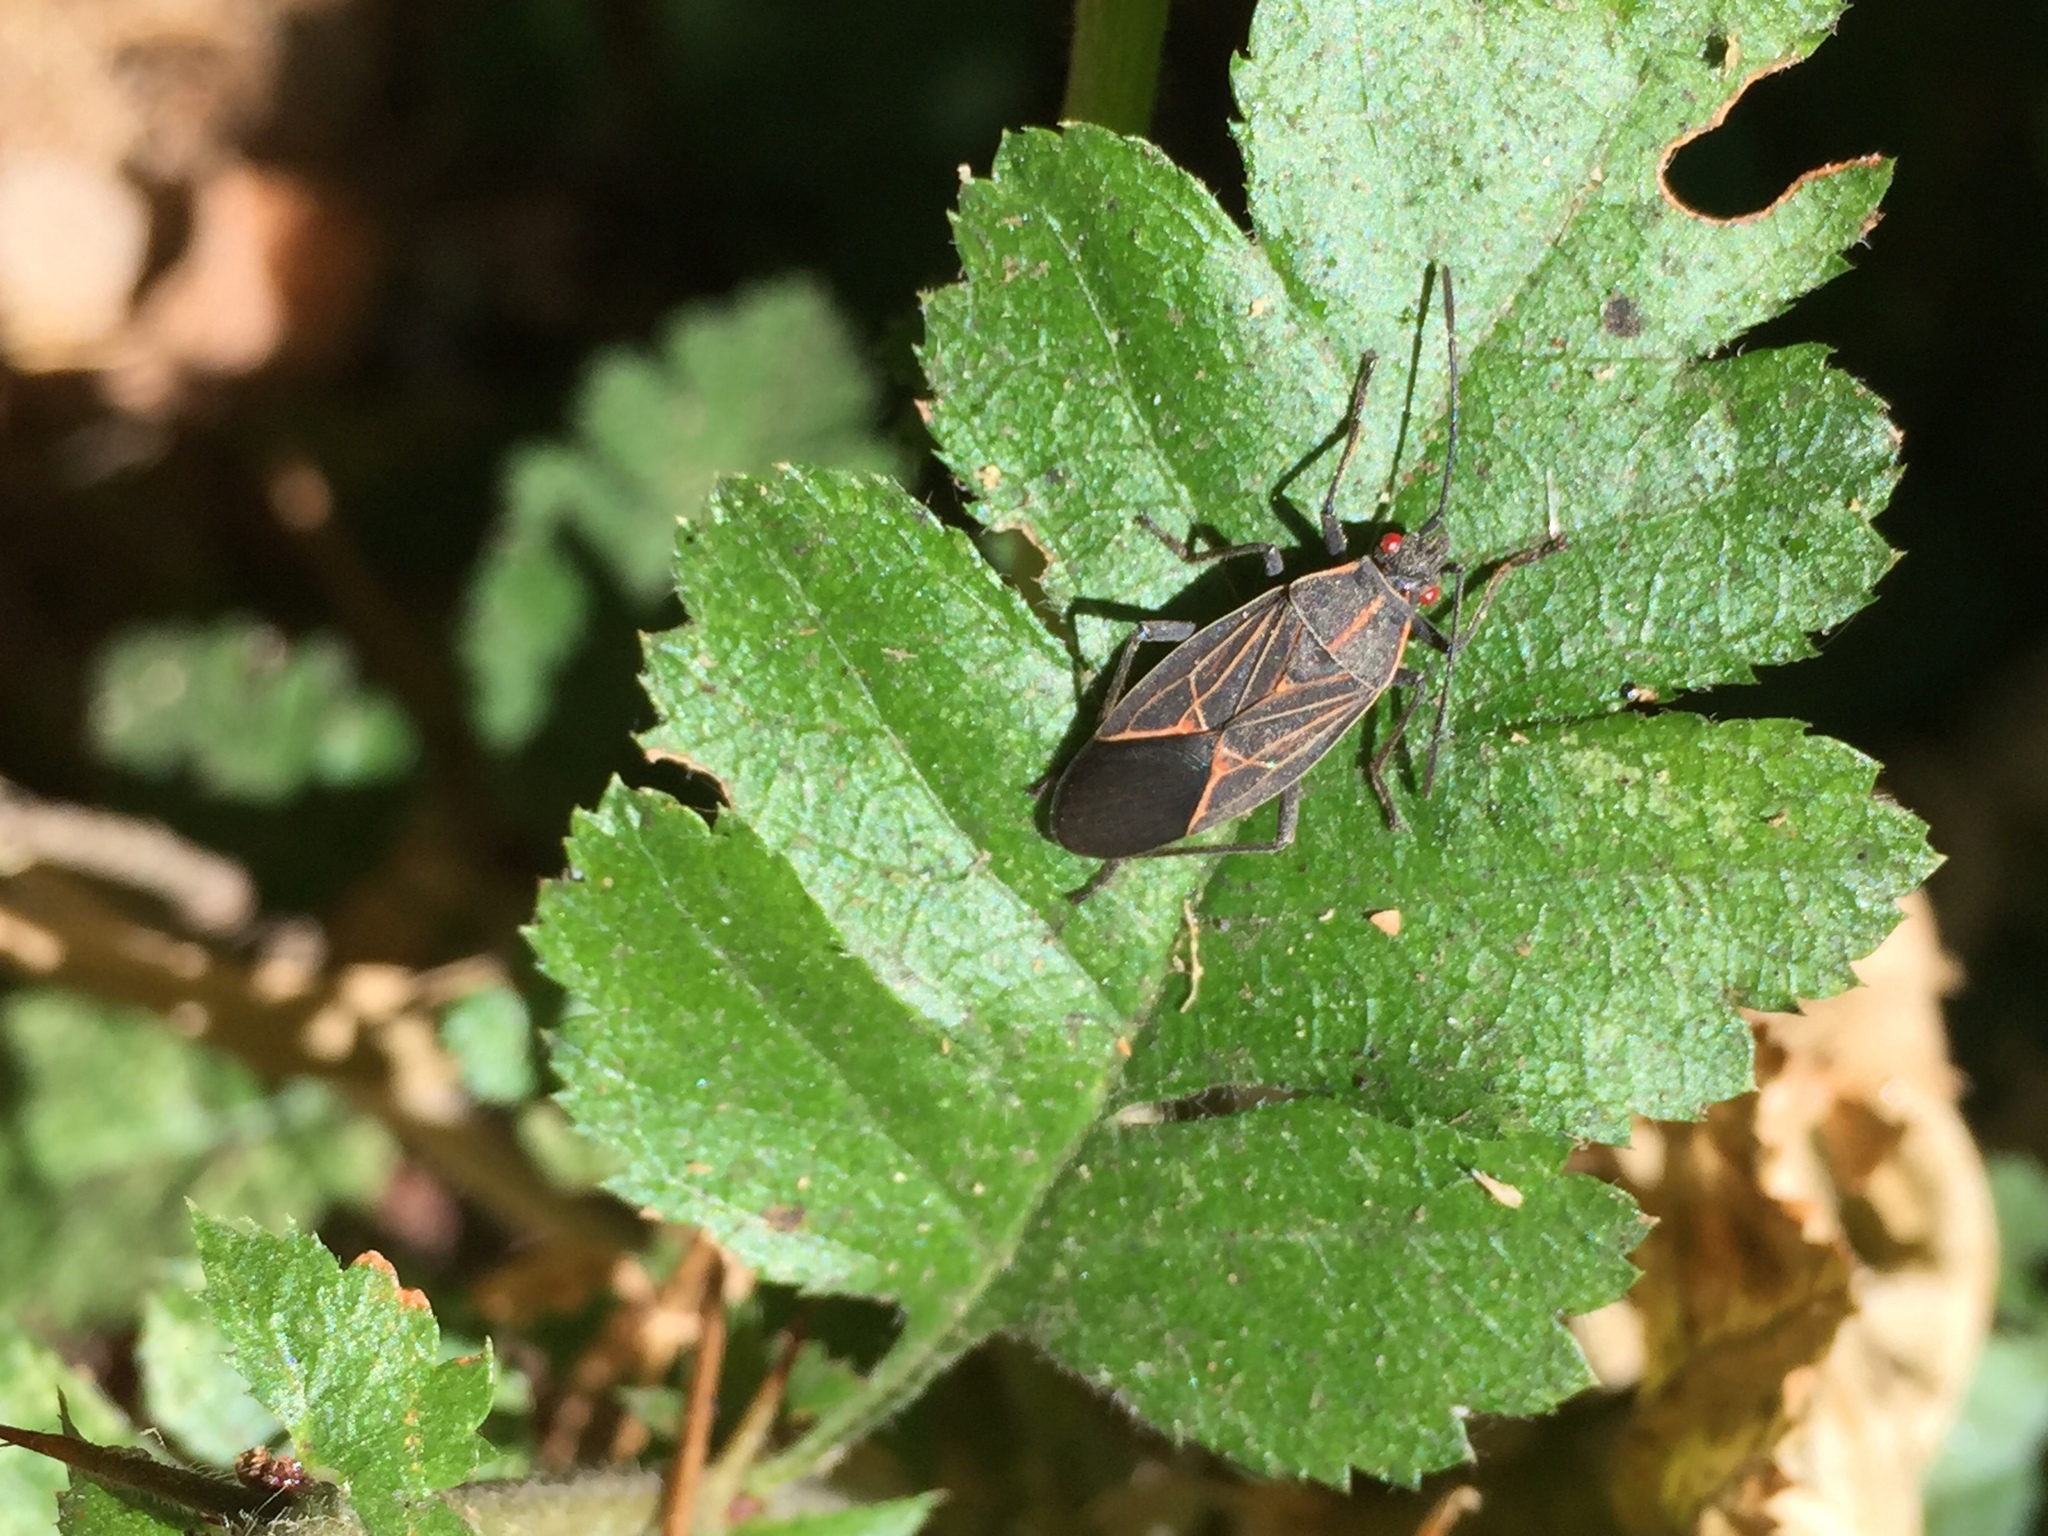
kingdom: Animalia
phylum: Arthropoda
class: Insecta
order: Hemiptera
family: Rhopalidae
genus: Boisea
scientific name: Boisea rubrolineata
